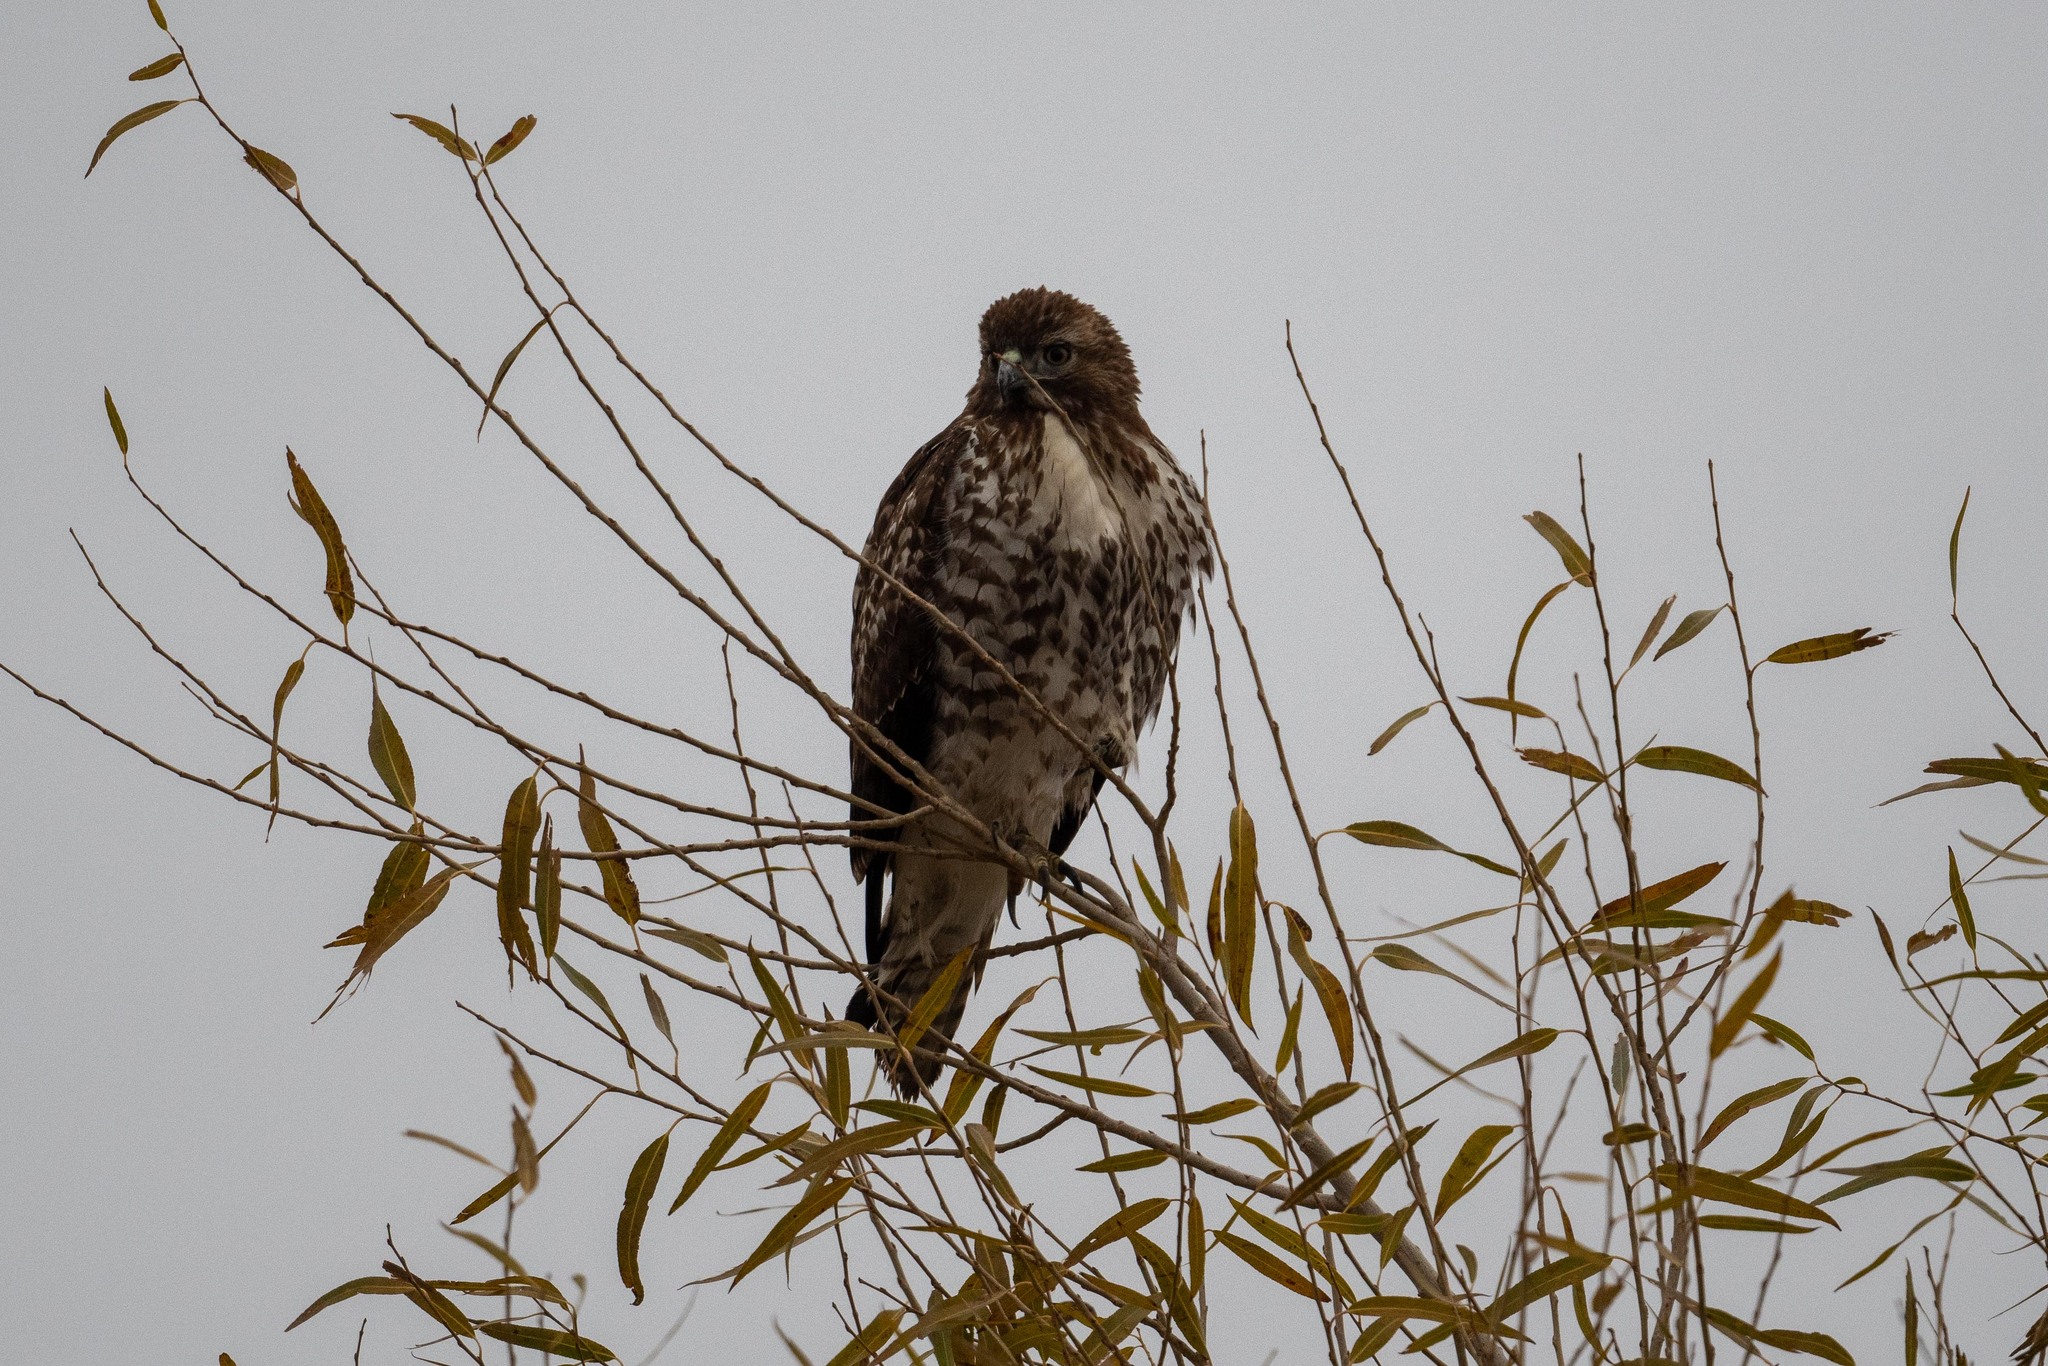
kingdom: Animalia
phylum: Chordata
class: Aves
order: Accipitriformes
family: Accipitridae
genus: Buteo
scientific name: Buteo jamaicensis
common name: Red-tailed hawk
